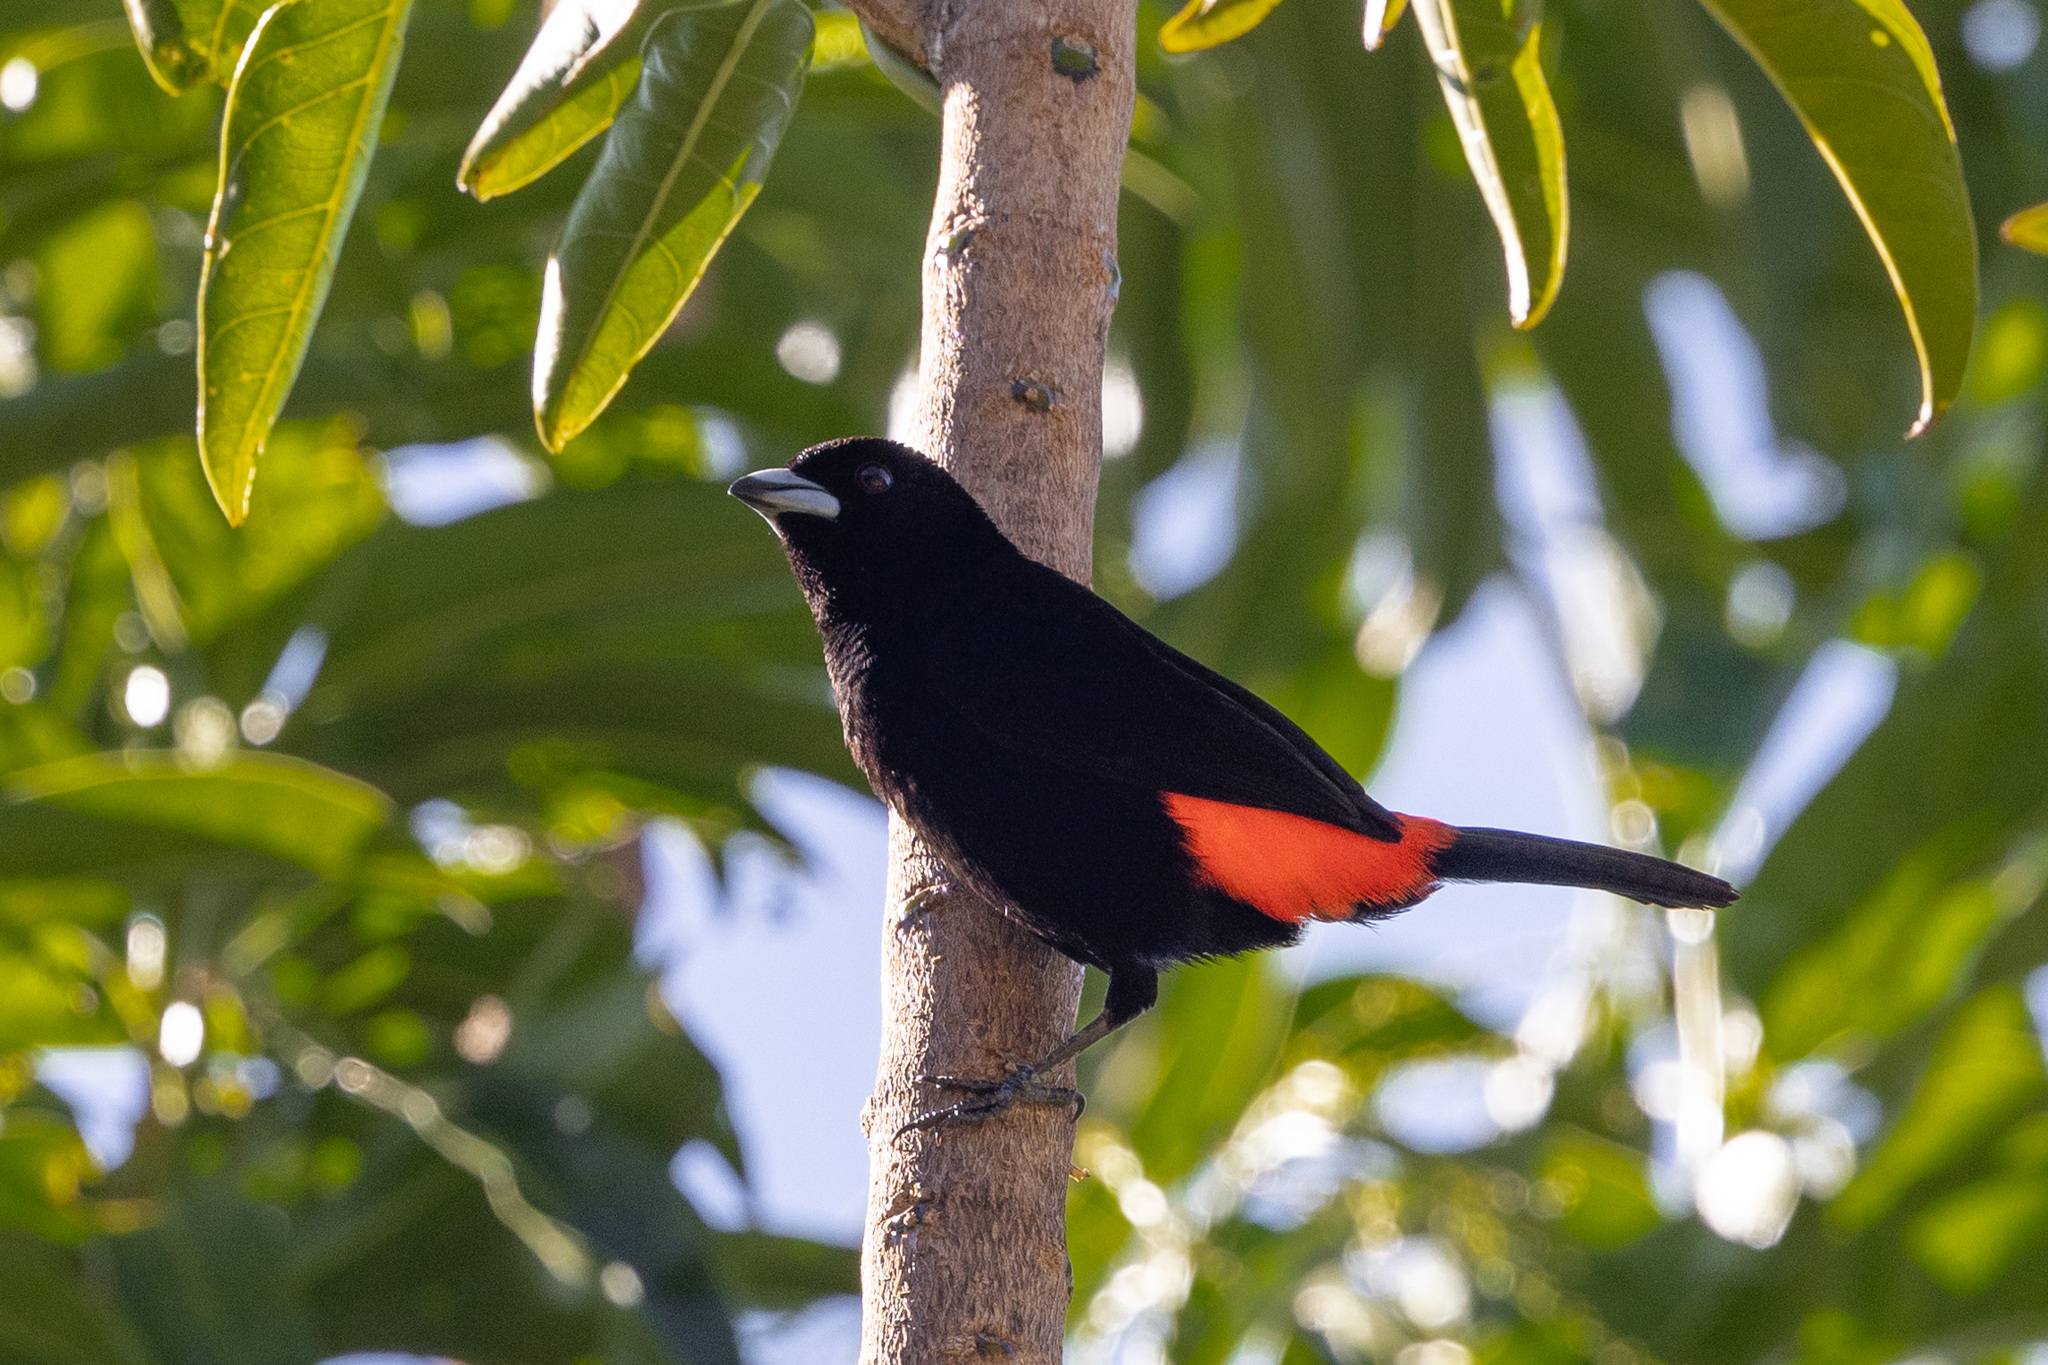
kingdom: Animalia
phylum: Chordata
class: Aves
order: Passeriformes
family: Thraupidae
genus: Ramphocelus
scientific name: Ramphocelus passerinii
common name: Passerini's tanager
